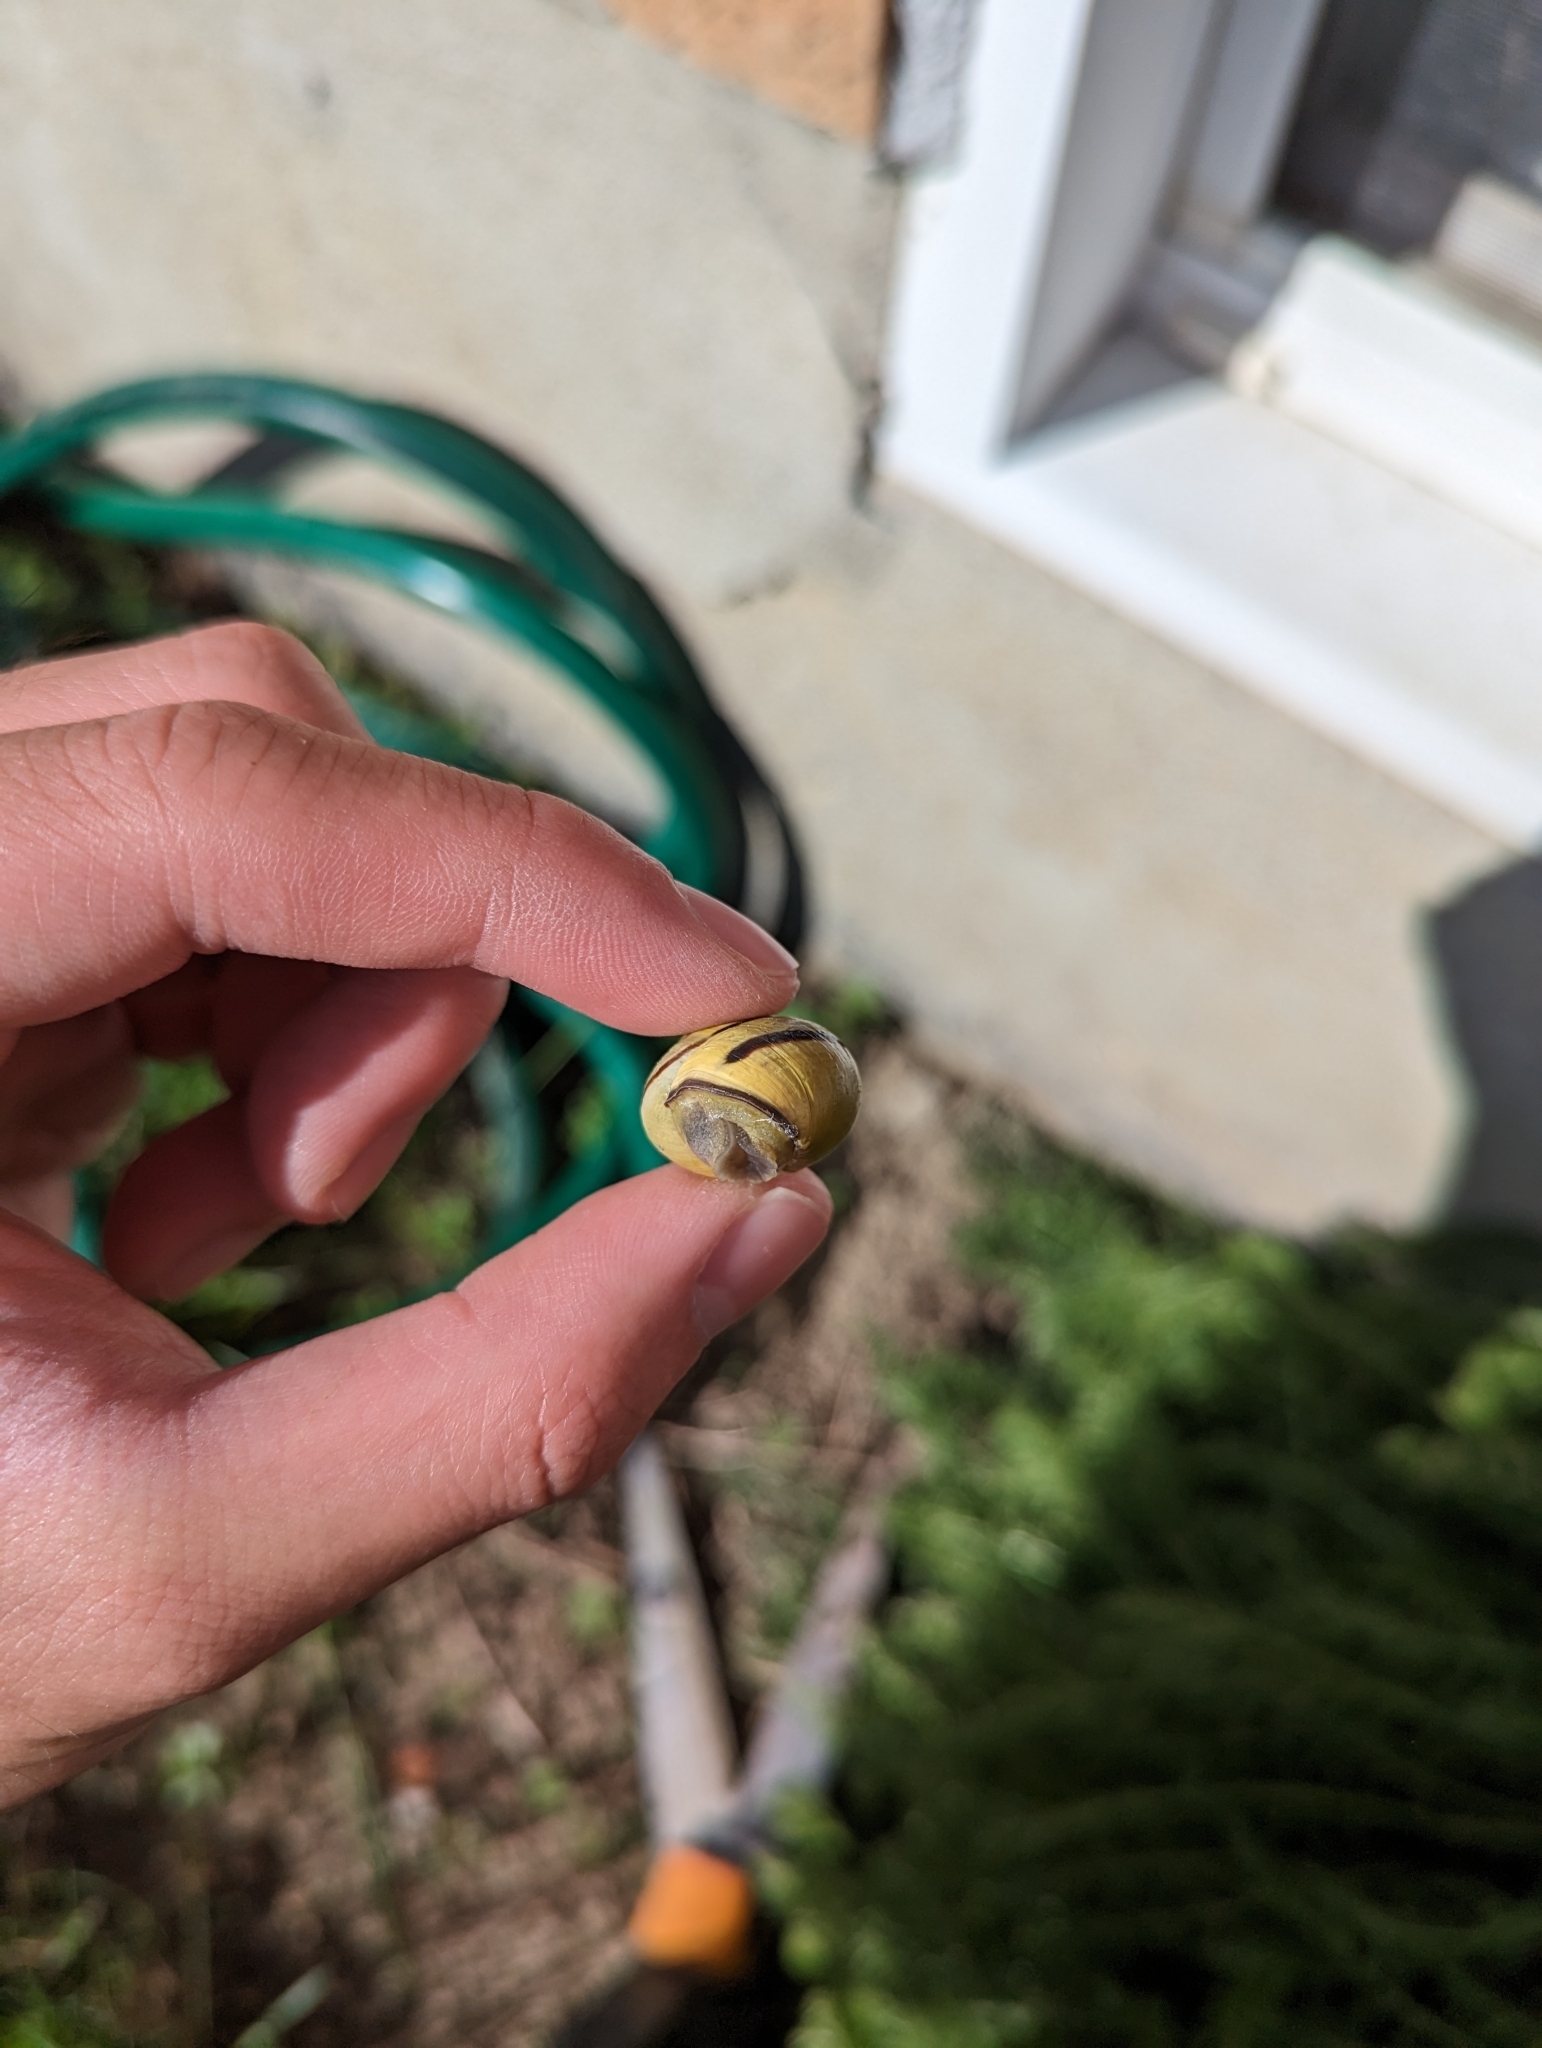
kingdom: Animalia
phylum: Mollusca
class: Gastropoda
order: Stylommatophora
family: Helicidae
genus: Cepaea
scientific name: Cepaea nemoralis
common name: Grovesnail
